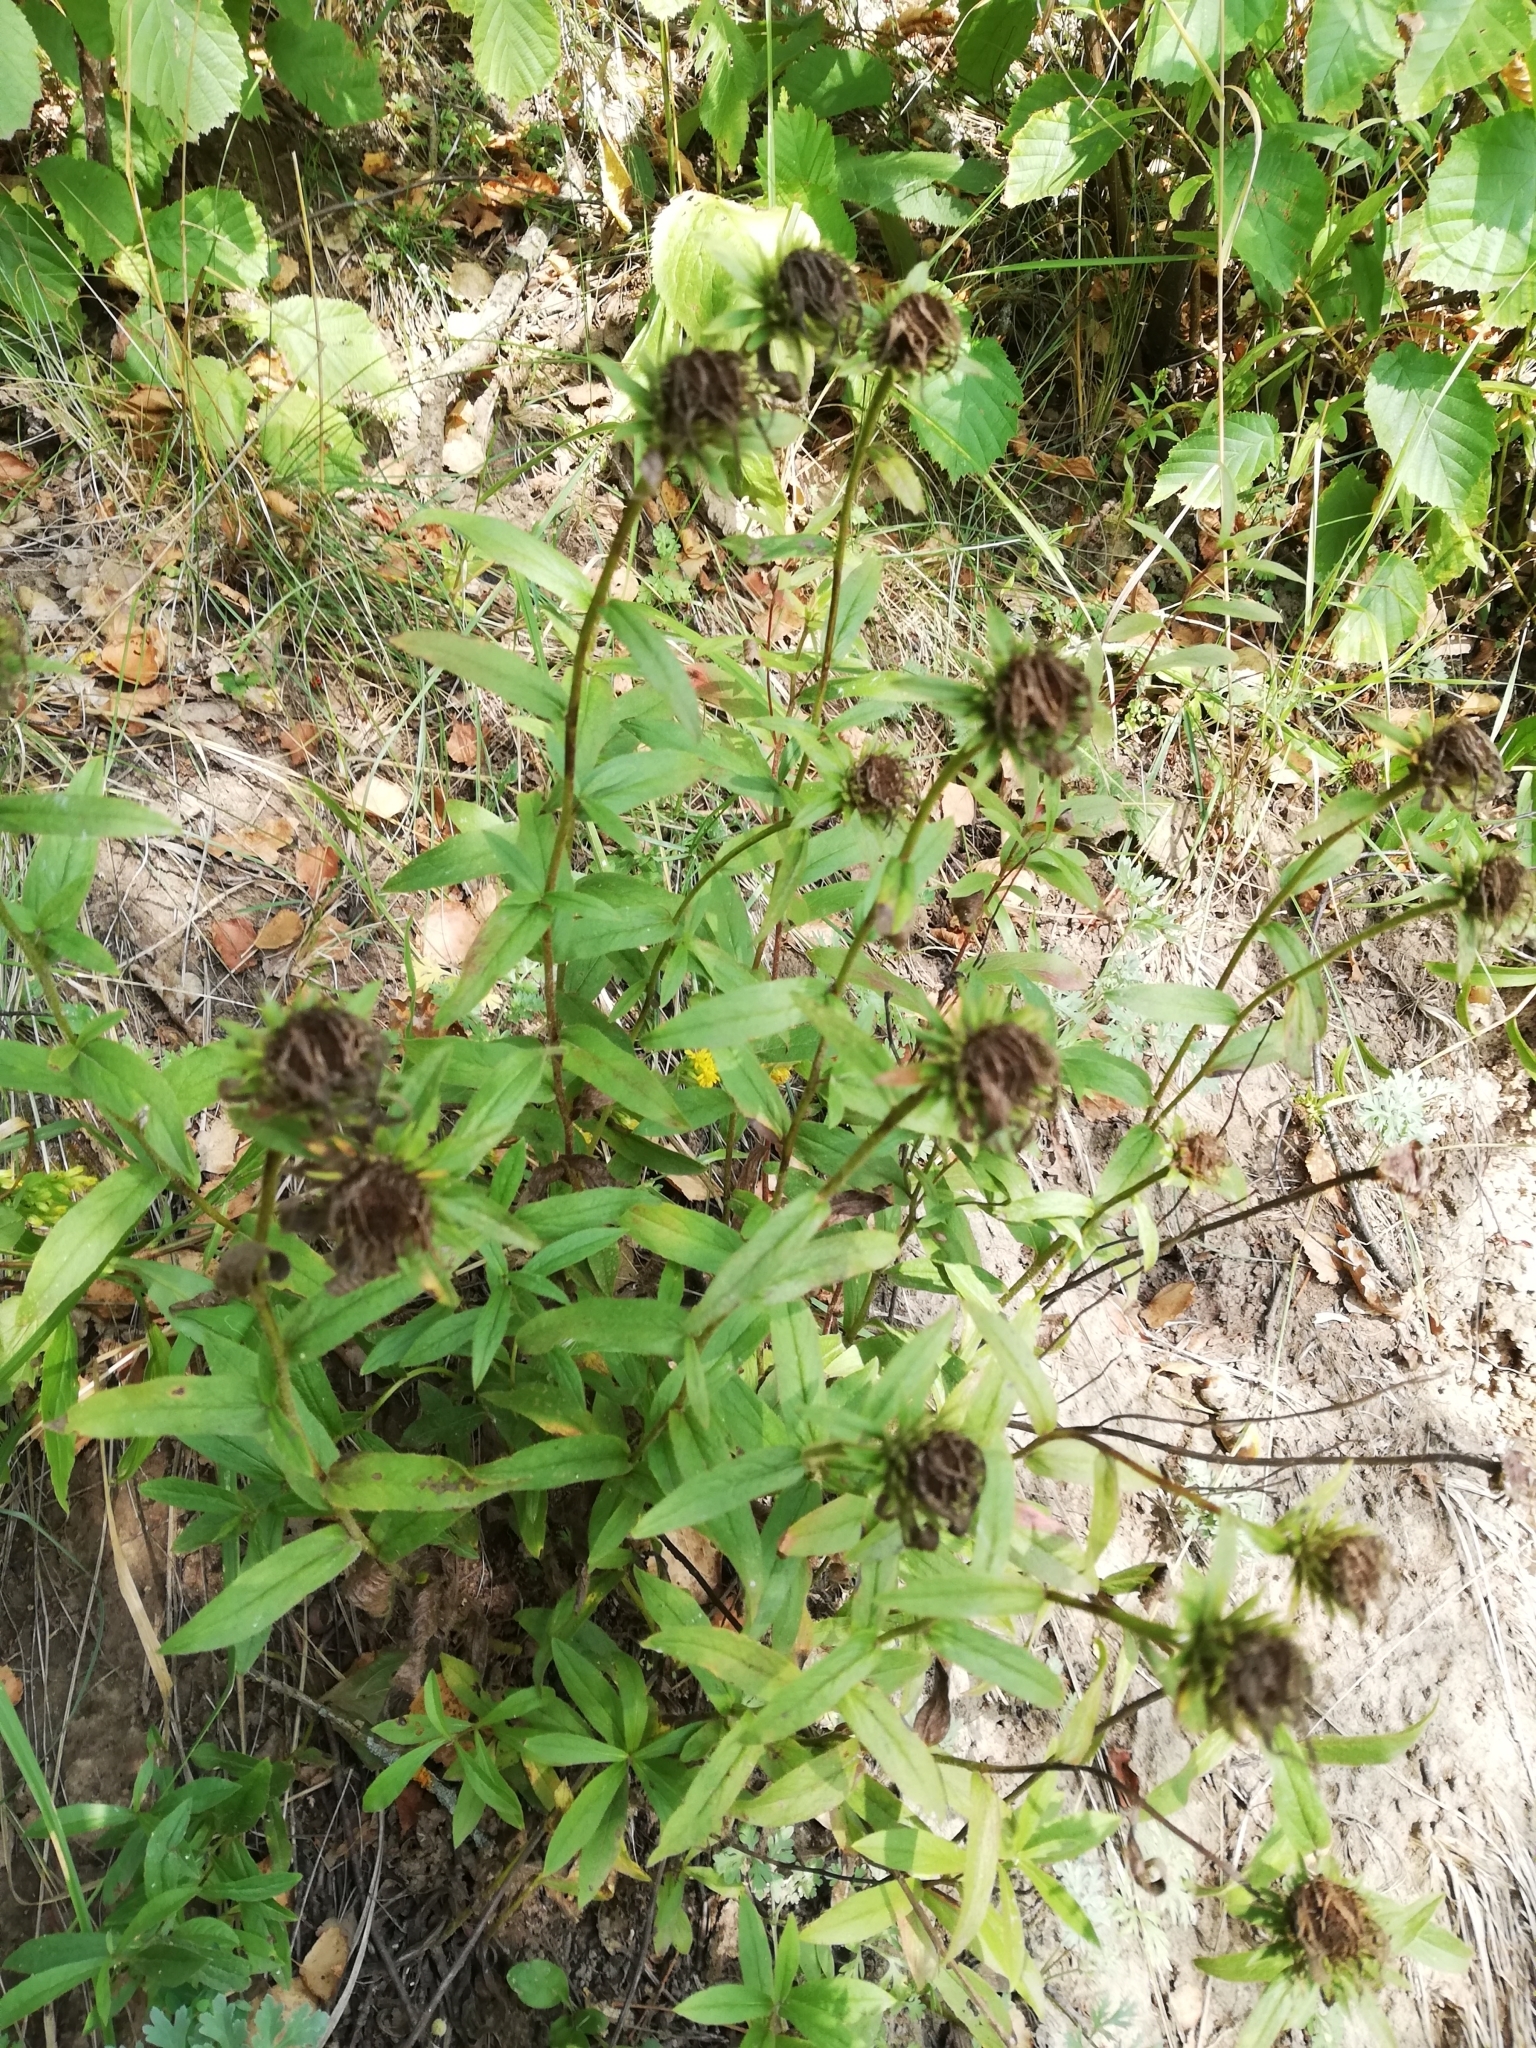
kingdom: Plantae
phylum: Tracheophyta
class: Magnoliopsida
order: Asterales
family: Asteraceae
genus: Pentanema
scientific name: Pentanema hirtum
